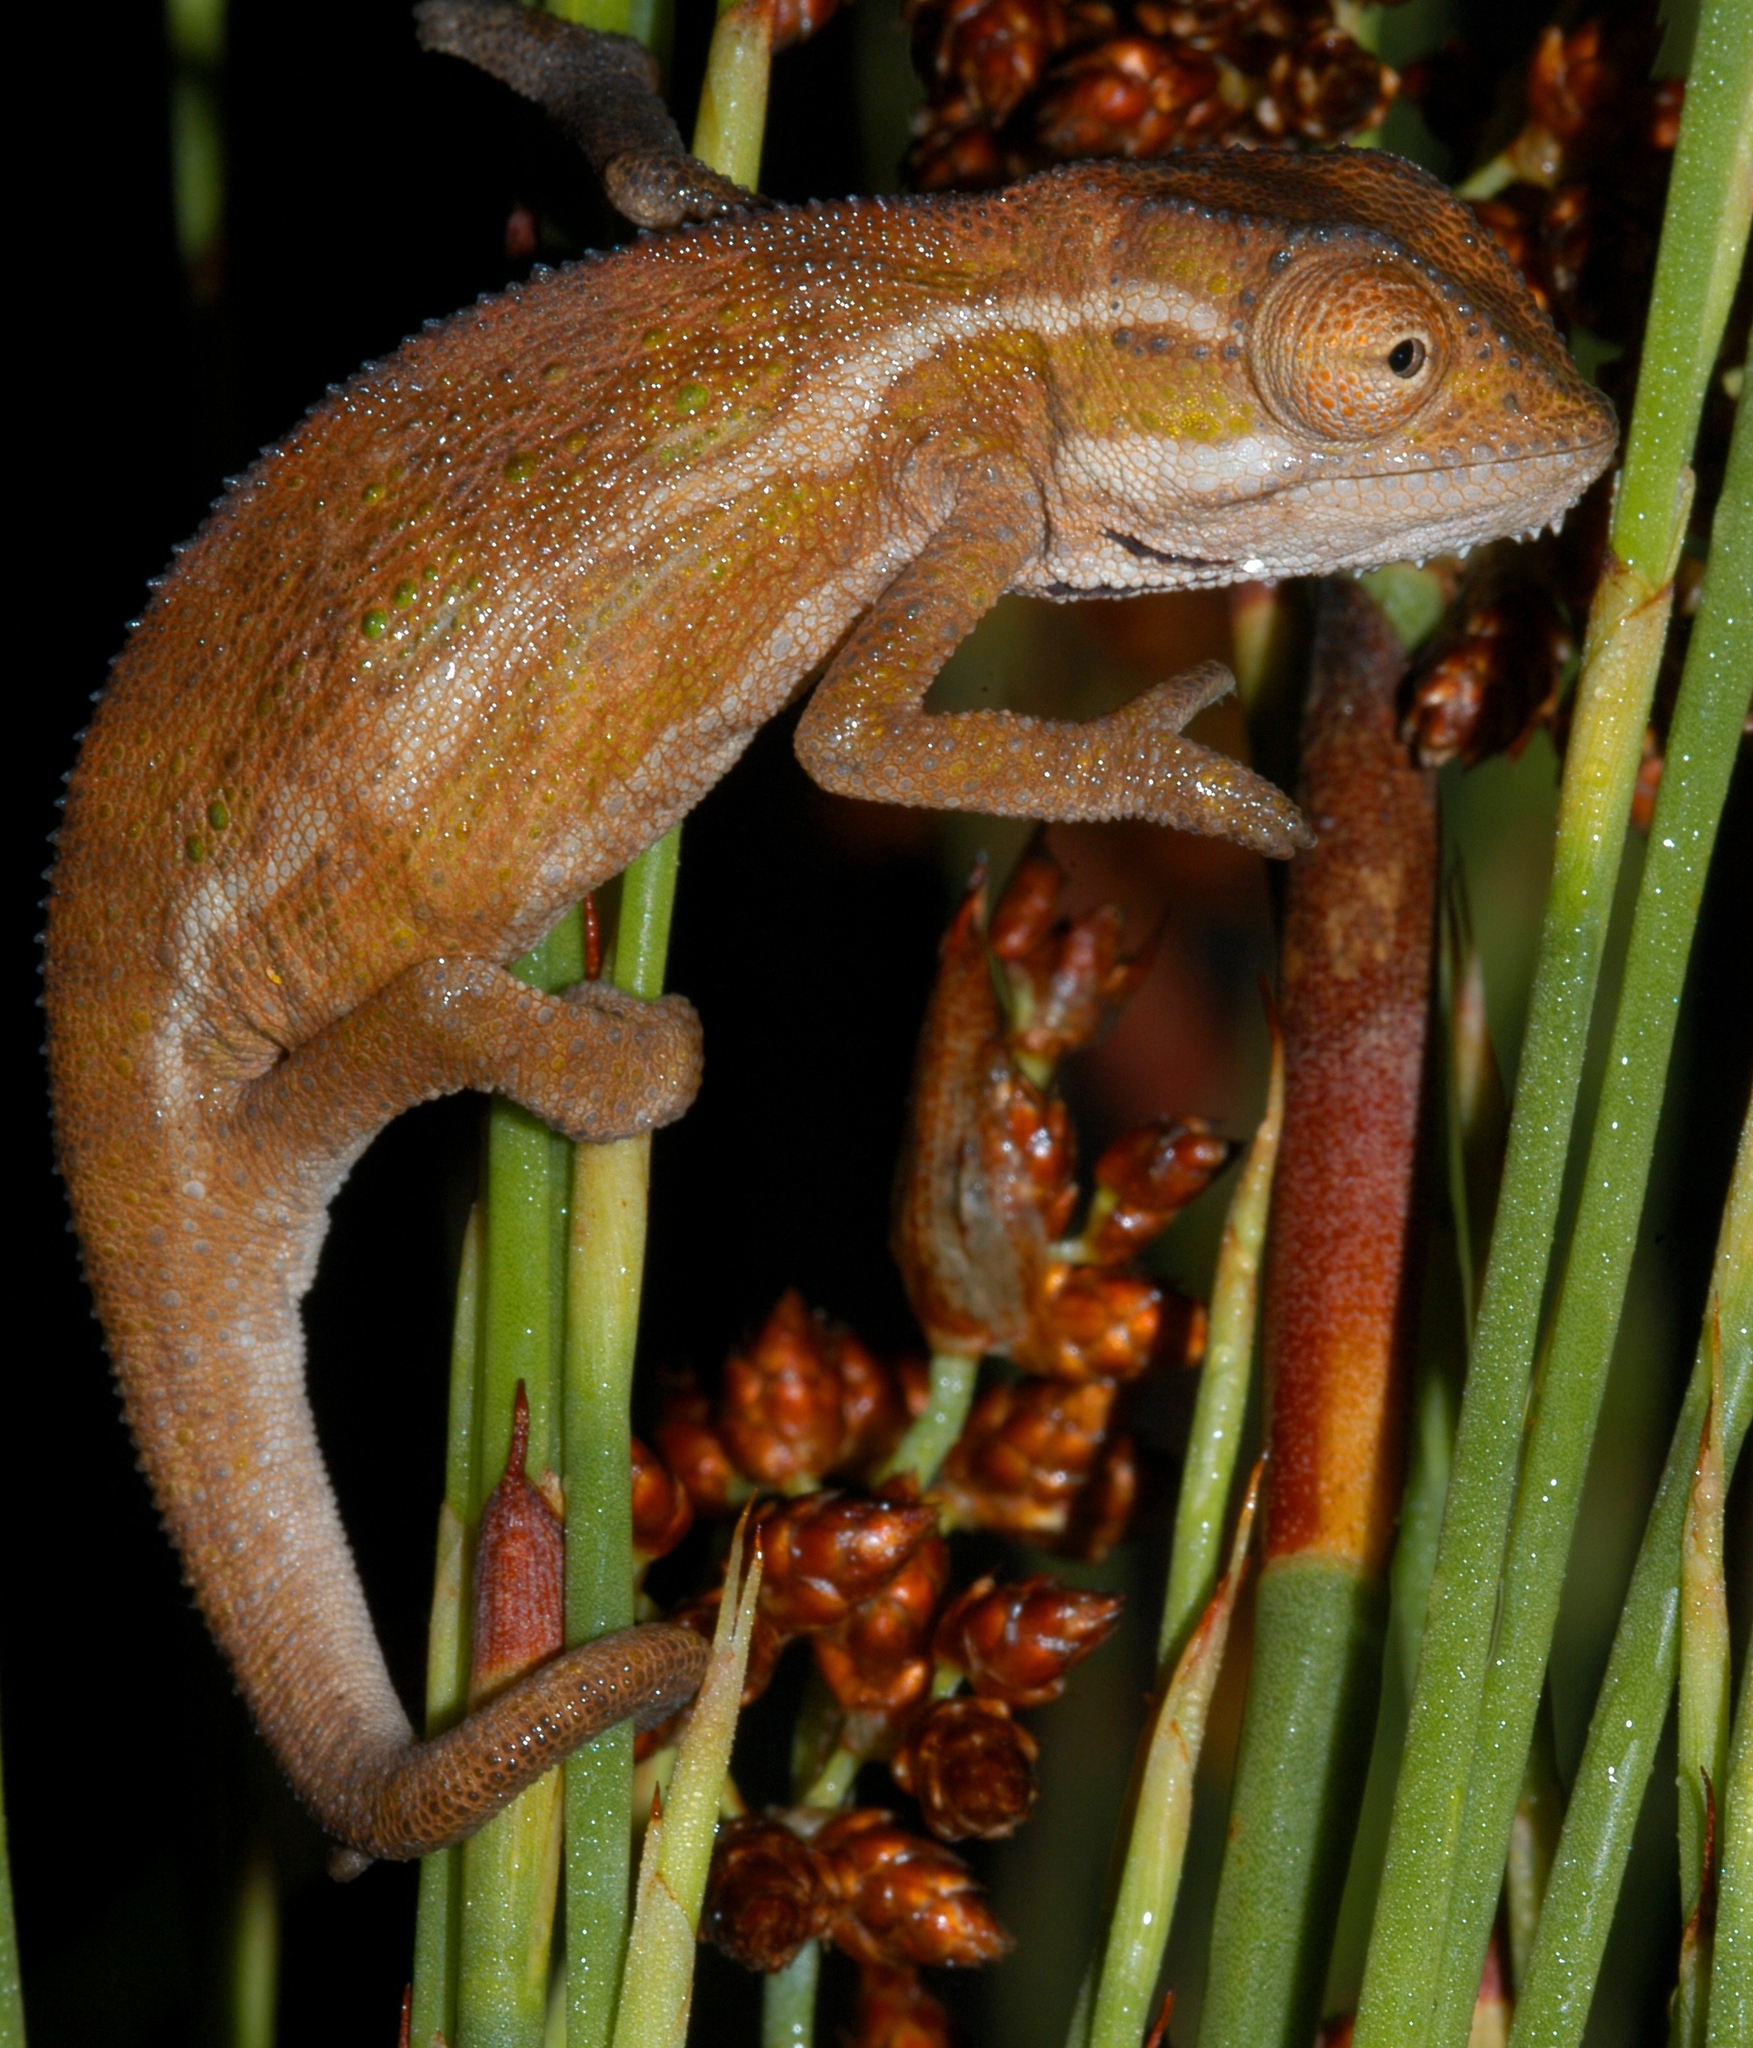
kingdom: Animalia
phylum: Chordata
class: Squamata
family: Chamaeleonidae
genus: Bradypodion
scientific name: Bradypodion taeniabronchum
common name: Elandsberg dwarf chameleon
